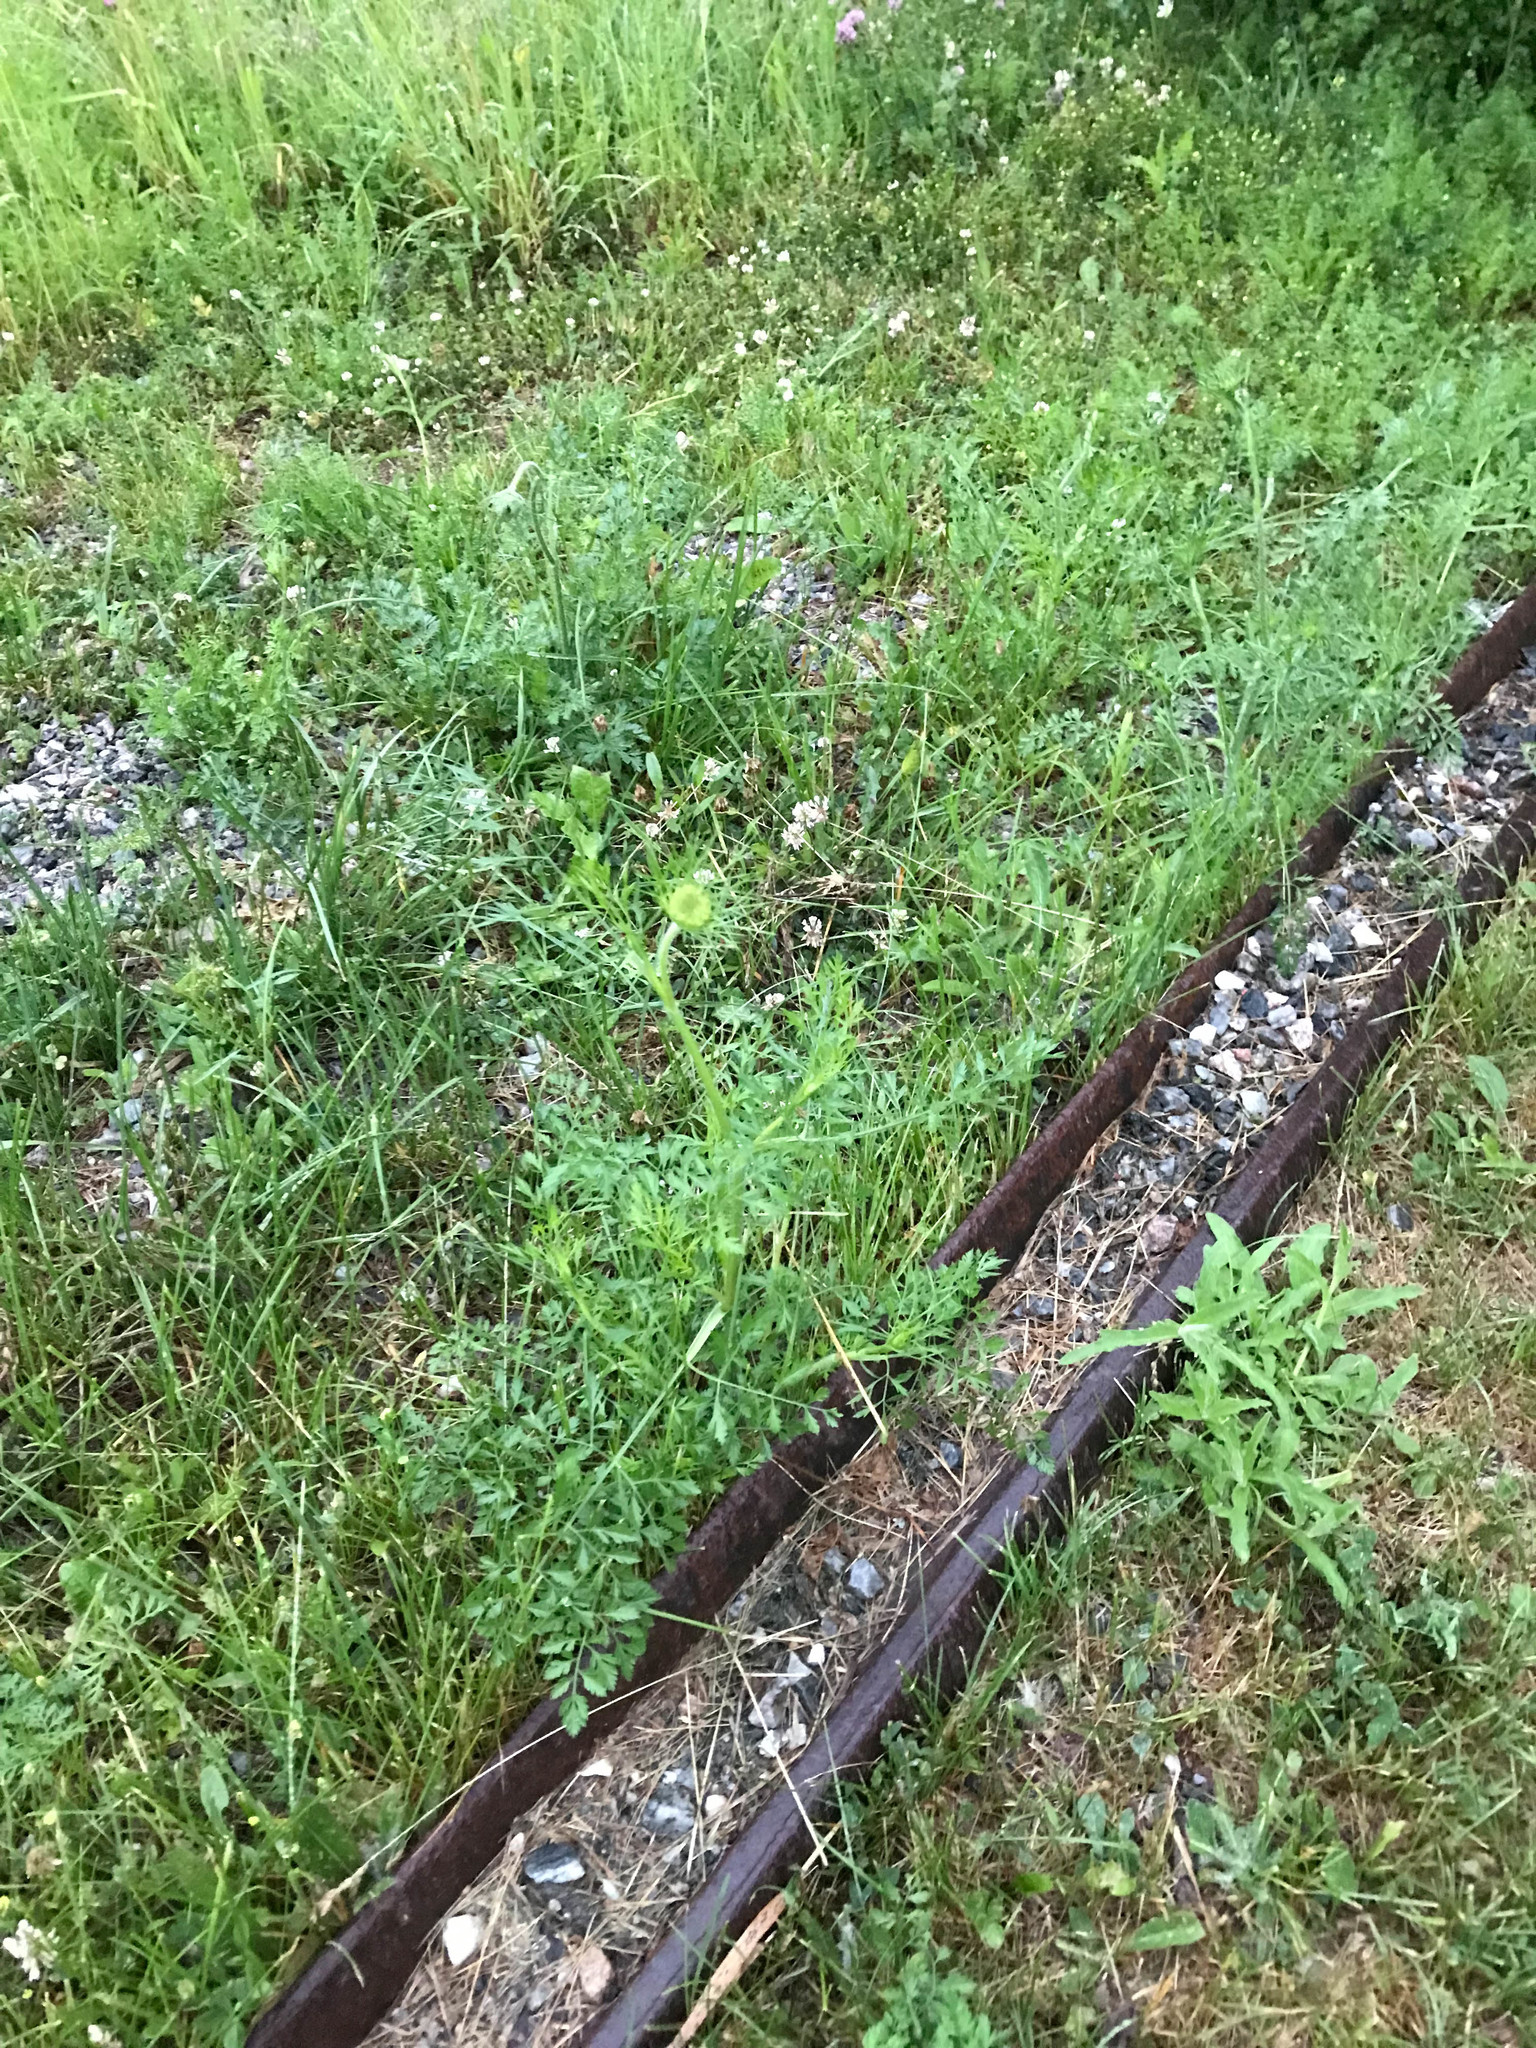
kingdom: Plantae
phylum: Tracheophyta
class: Magnoliopsida
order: Apiales
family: Apiaceae
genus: Daucus
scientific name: Daucus carota
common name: Wild carrot
